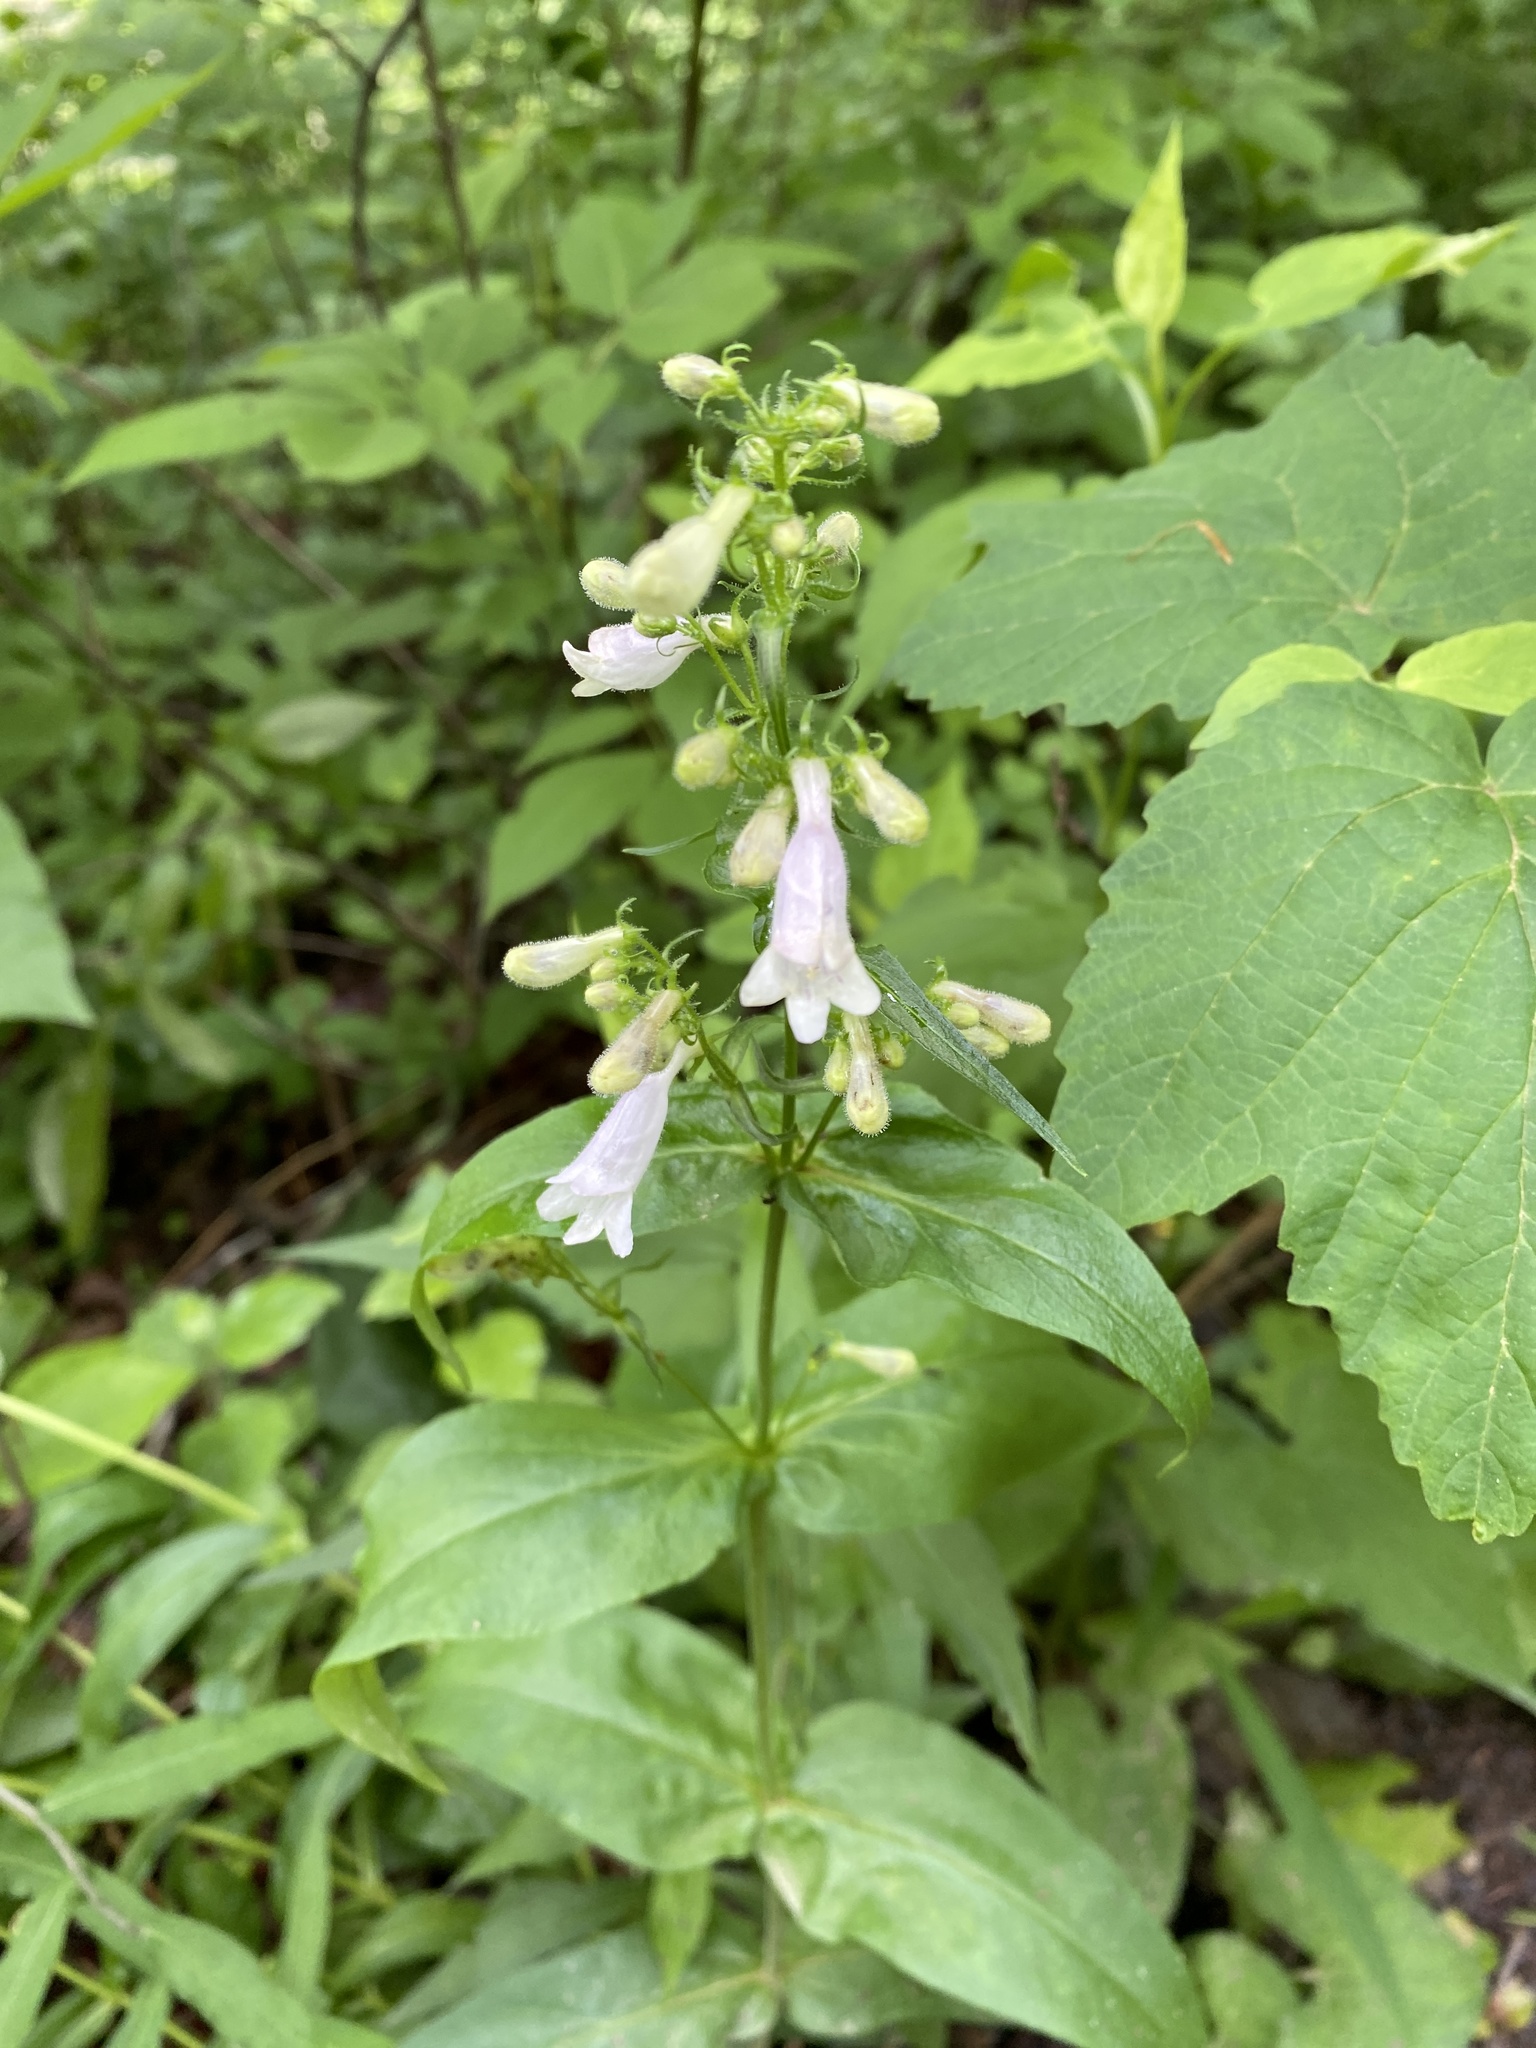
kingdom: Plantae
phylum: Tracheophyta
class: Magnoliopsida
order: Lamiales
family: Plantaginaceae
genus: Penstemon
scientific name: Penstemon digitalis
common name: Foxglove beardtongue
